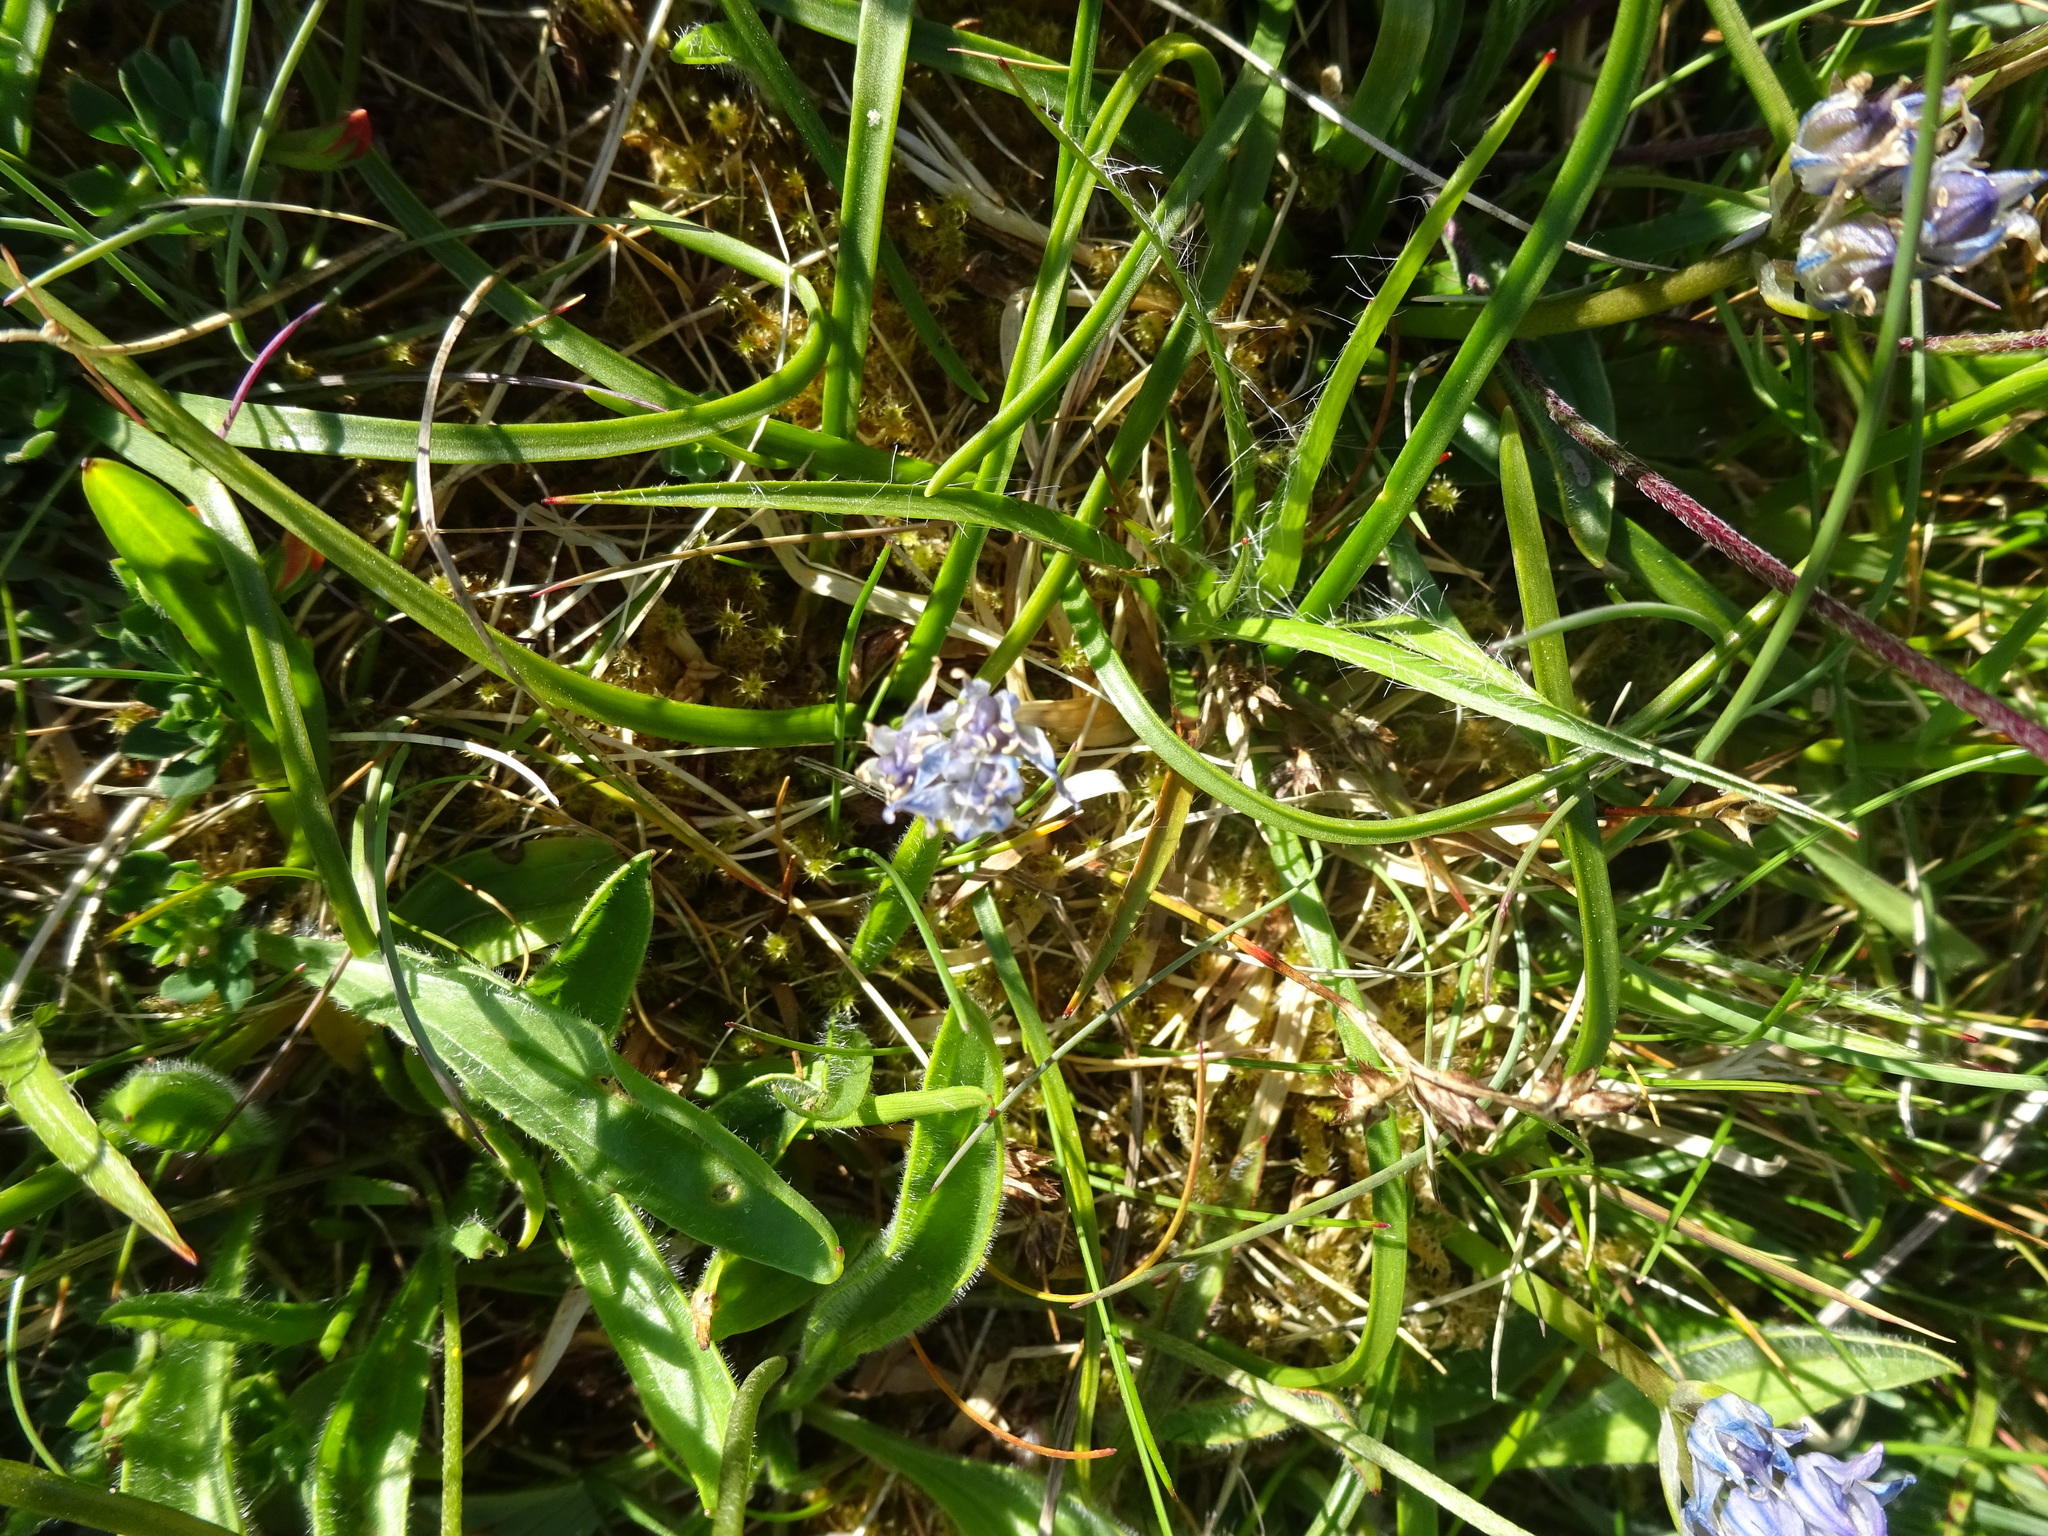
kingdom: Plantae
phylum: Tracheophyta
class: Liliopsida
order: Asparagales
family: Asparagaceae
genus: Scilla
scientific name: Scilla verna
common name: Spring squill
